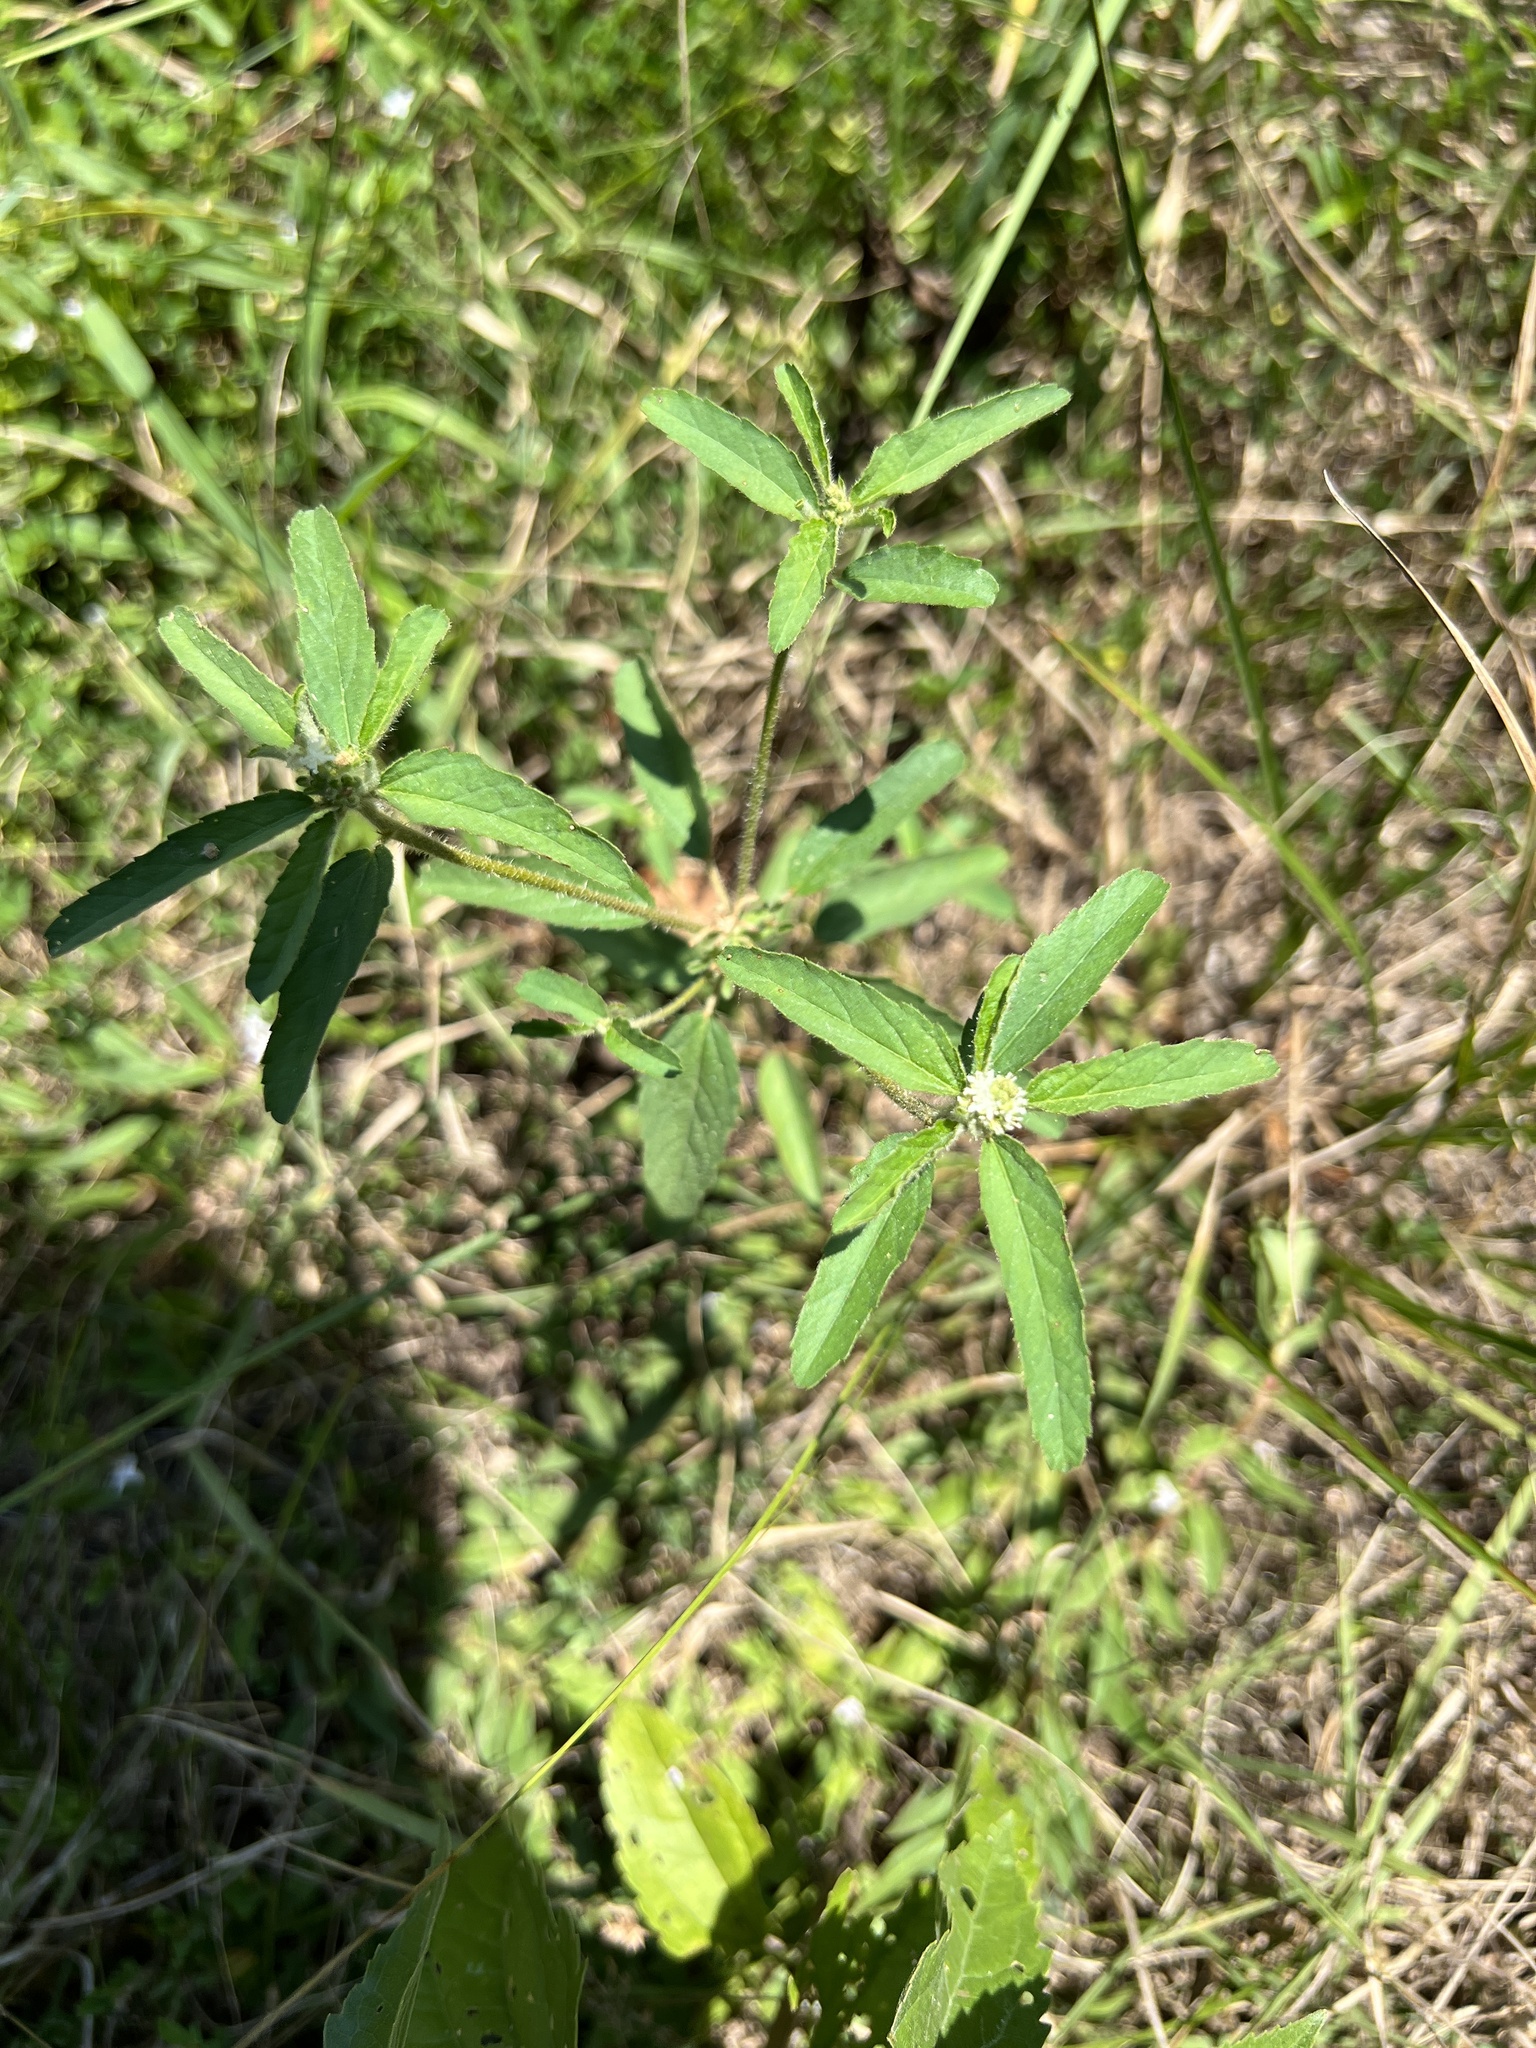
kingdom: Plantae
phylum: Tracheophyta
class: Magnoliopsida
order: Malpighiales
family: Euphorbiaceae
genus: Croton
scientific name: Croton glandulosus
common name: Tropic croton
